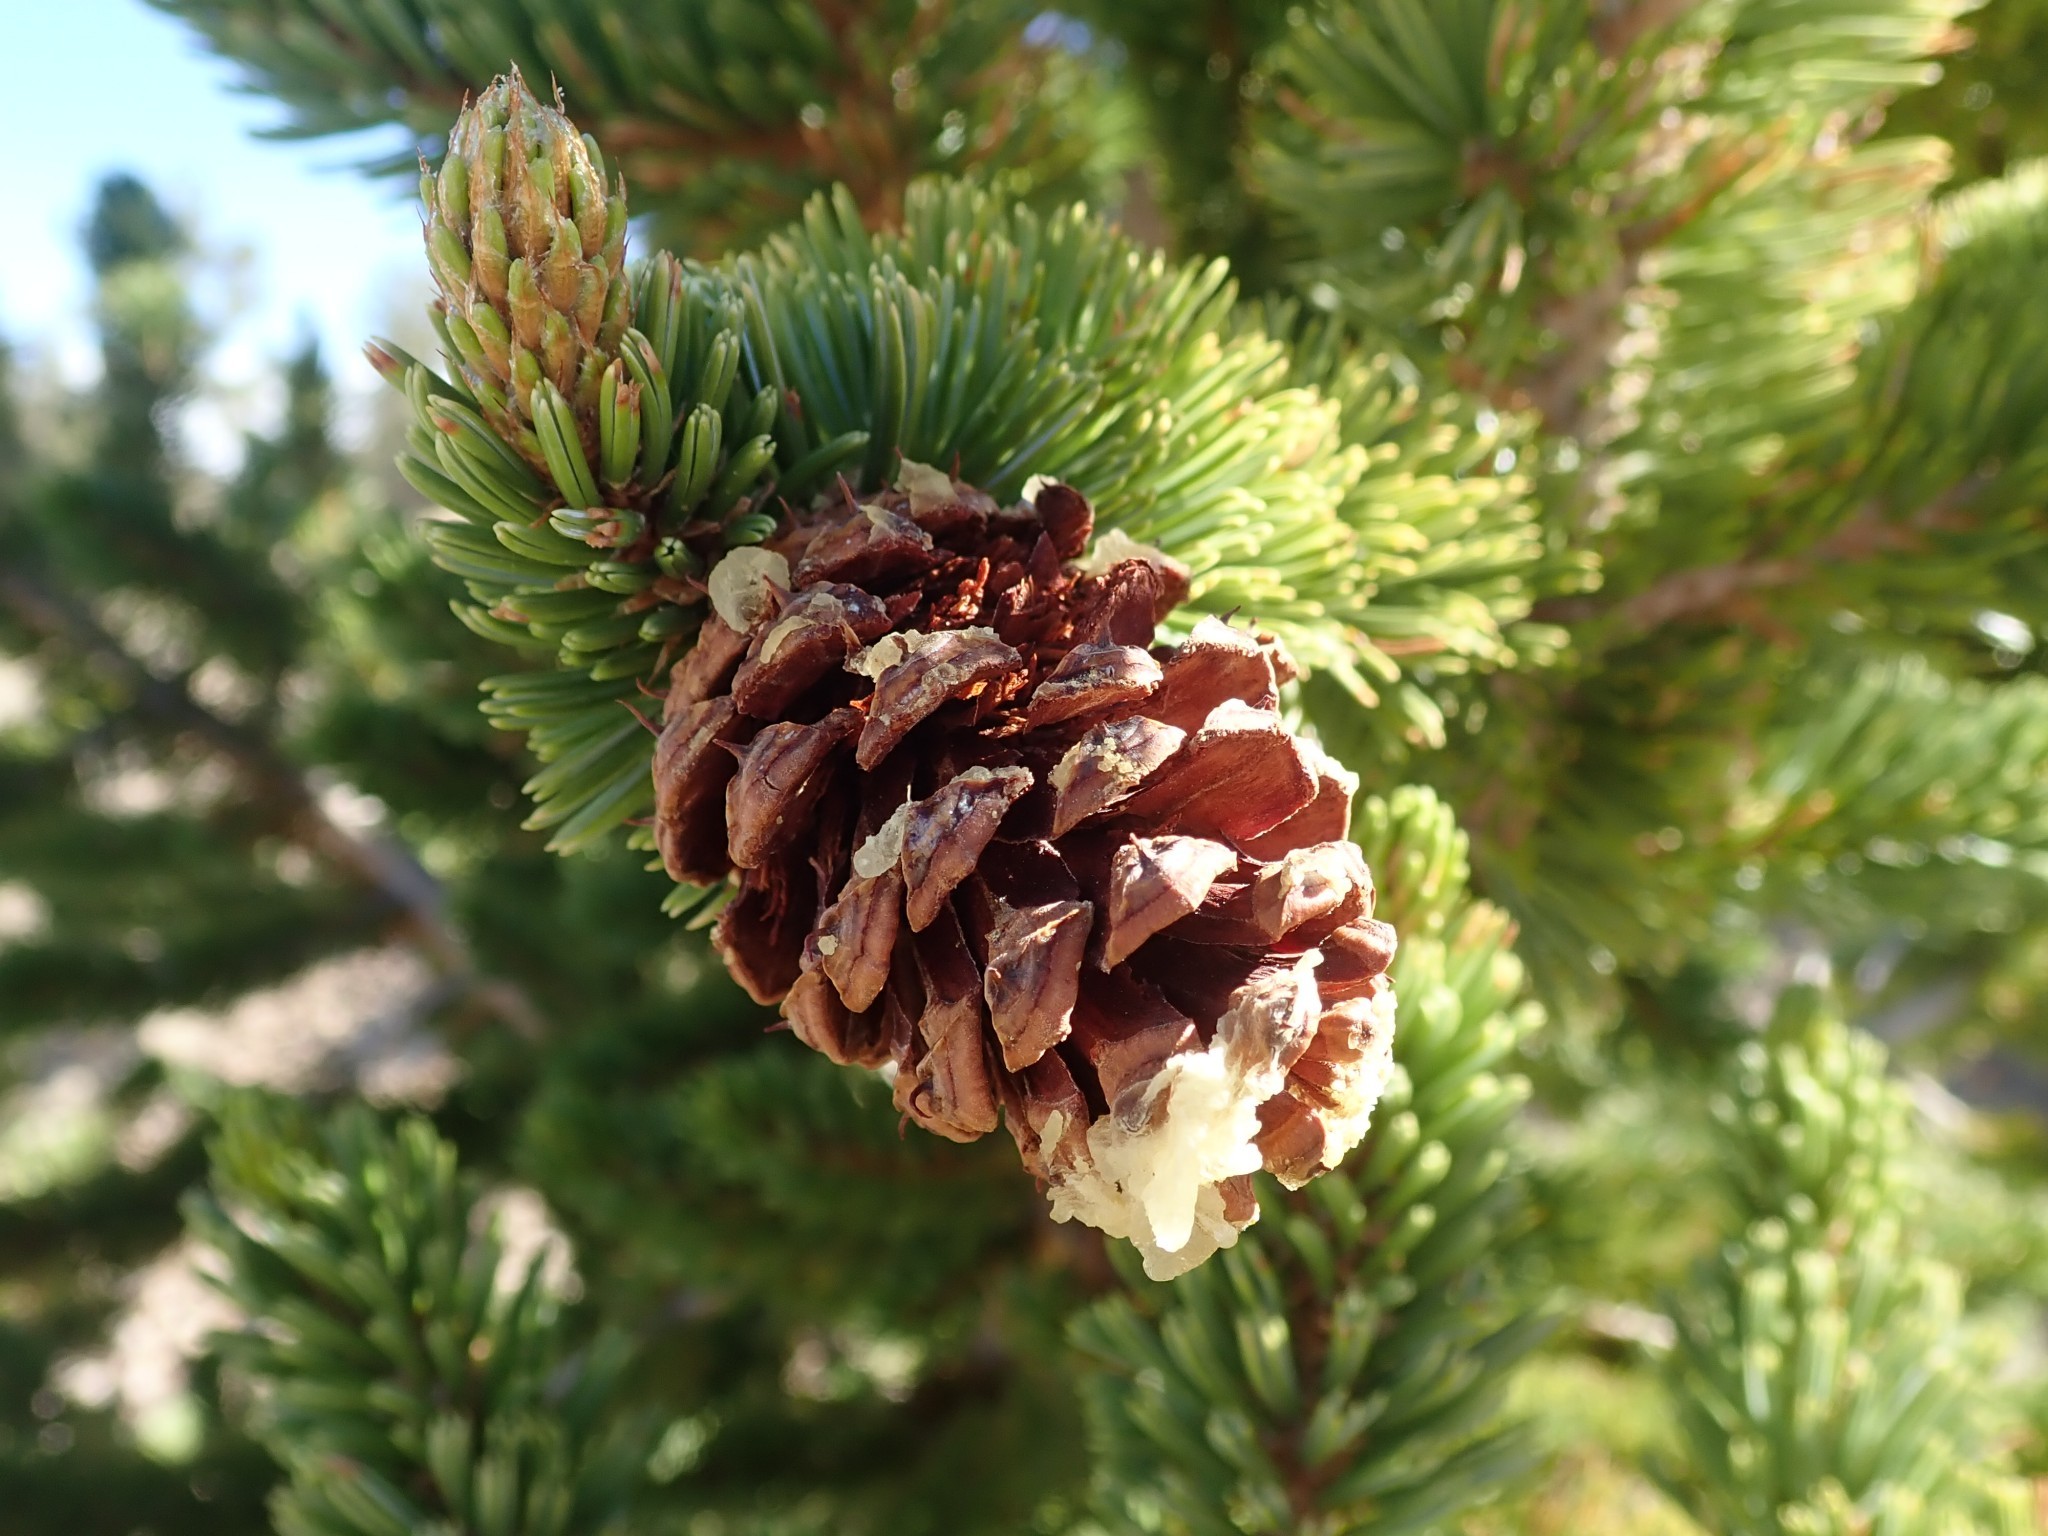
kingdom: Plantae
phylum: Tracheophyta
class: Pinopsida
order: Pinales
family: Pinaceae
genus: Pinus
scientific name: Pinus longaeva
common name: Intermountain bristlecone pine
